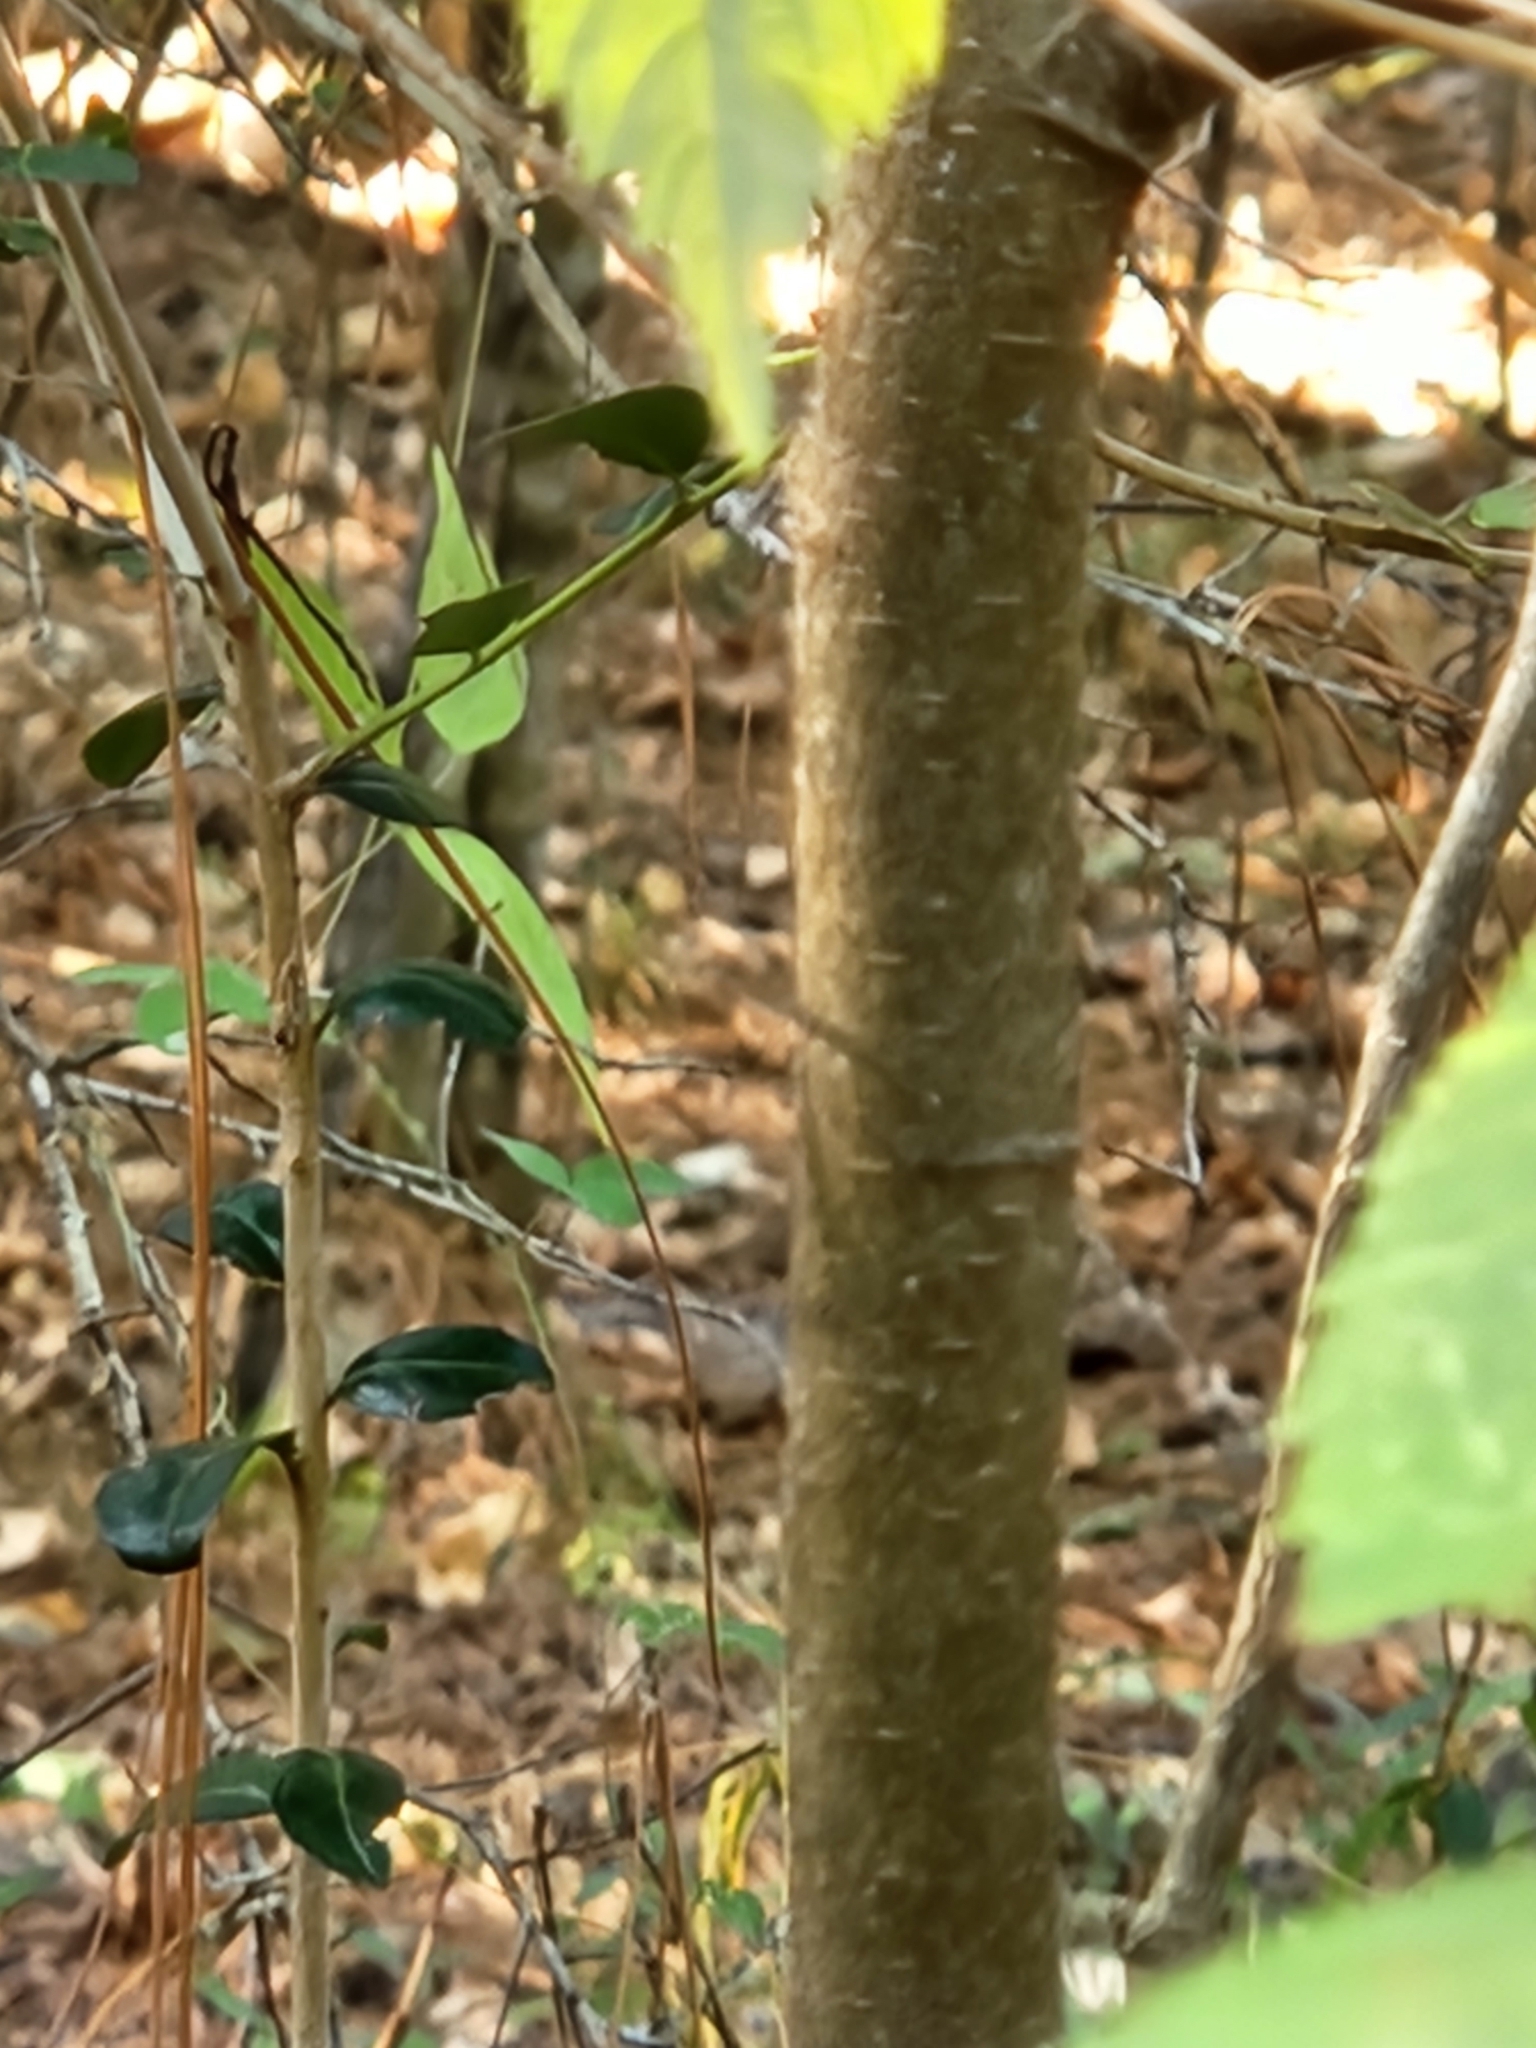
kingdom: Plantae
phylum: Tracheophyta
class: Magnoliopsida
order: Rosales
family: Ulmaceae
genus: Ulmus
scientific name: Ulmus alata
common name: Winged elm
